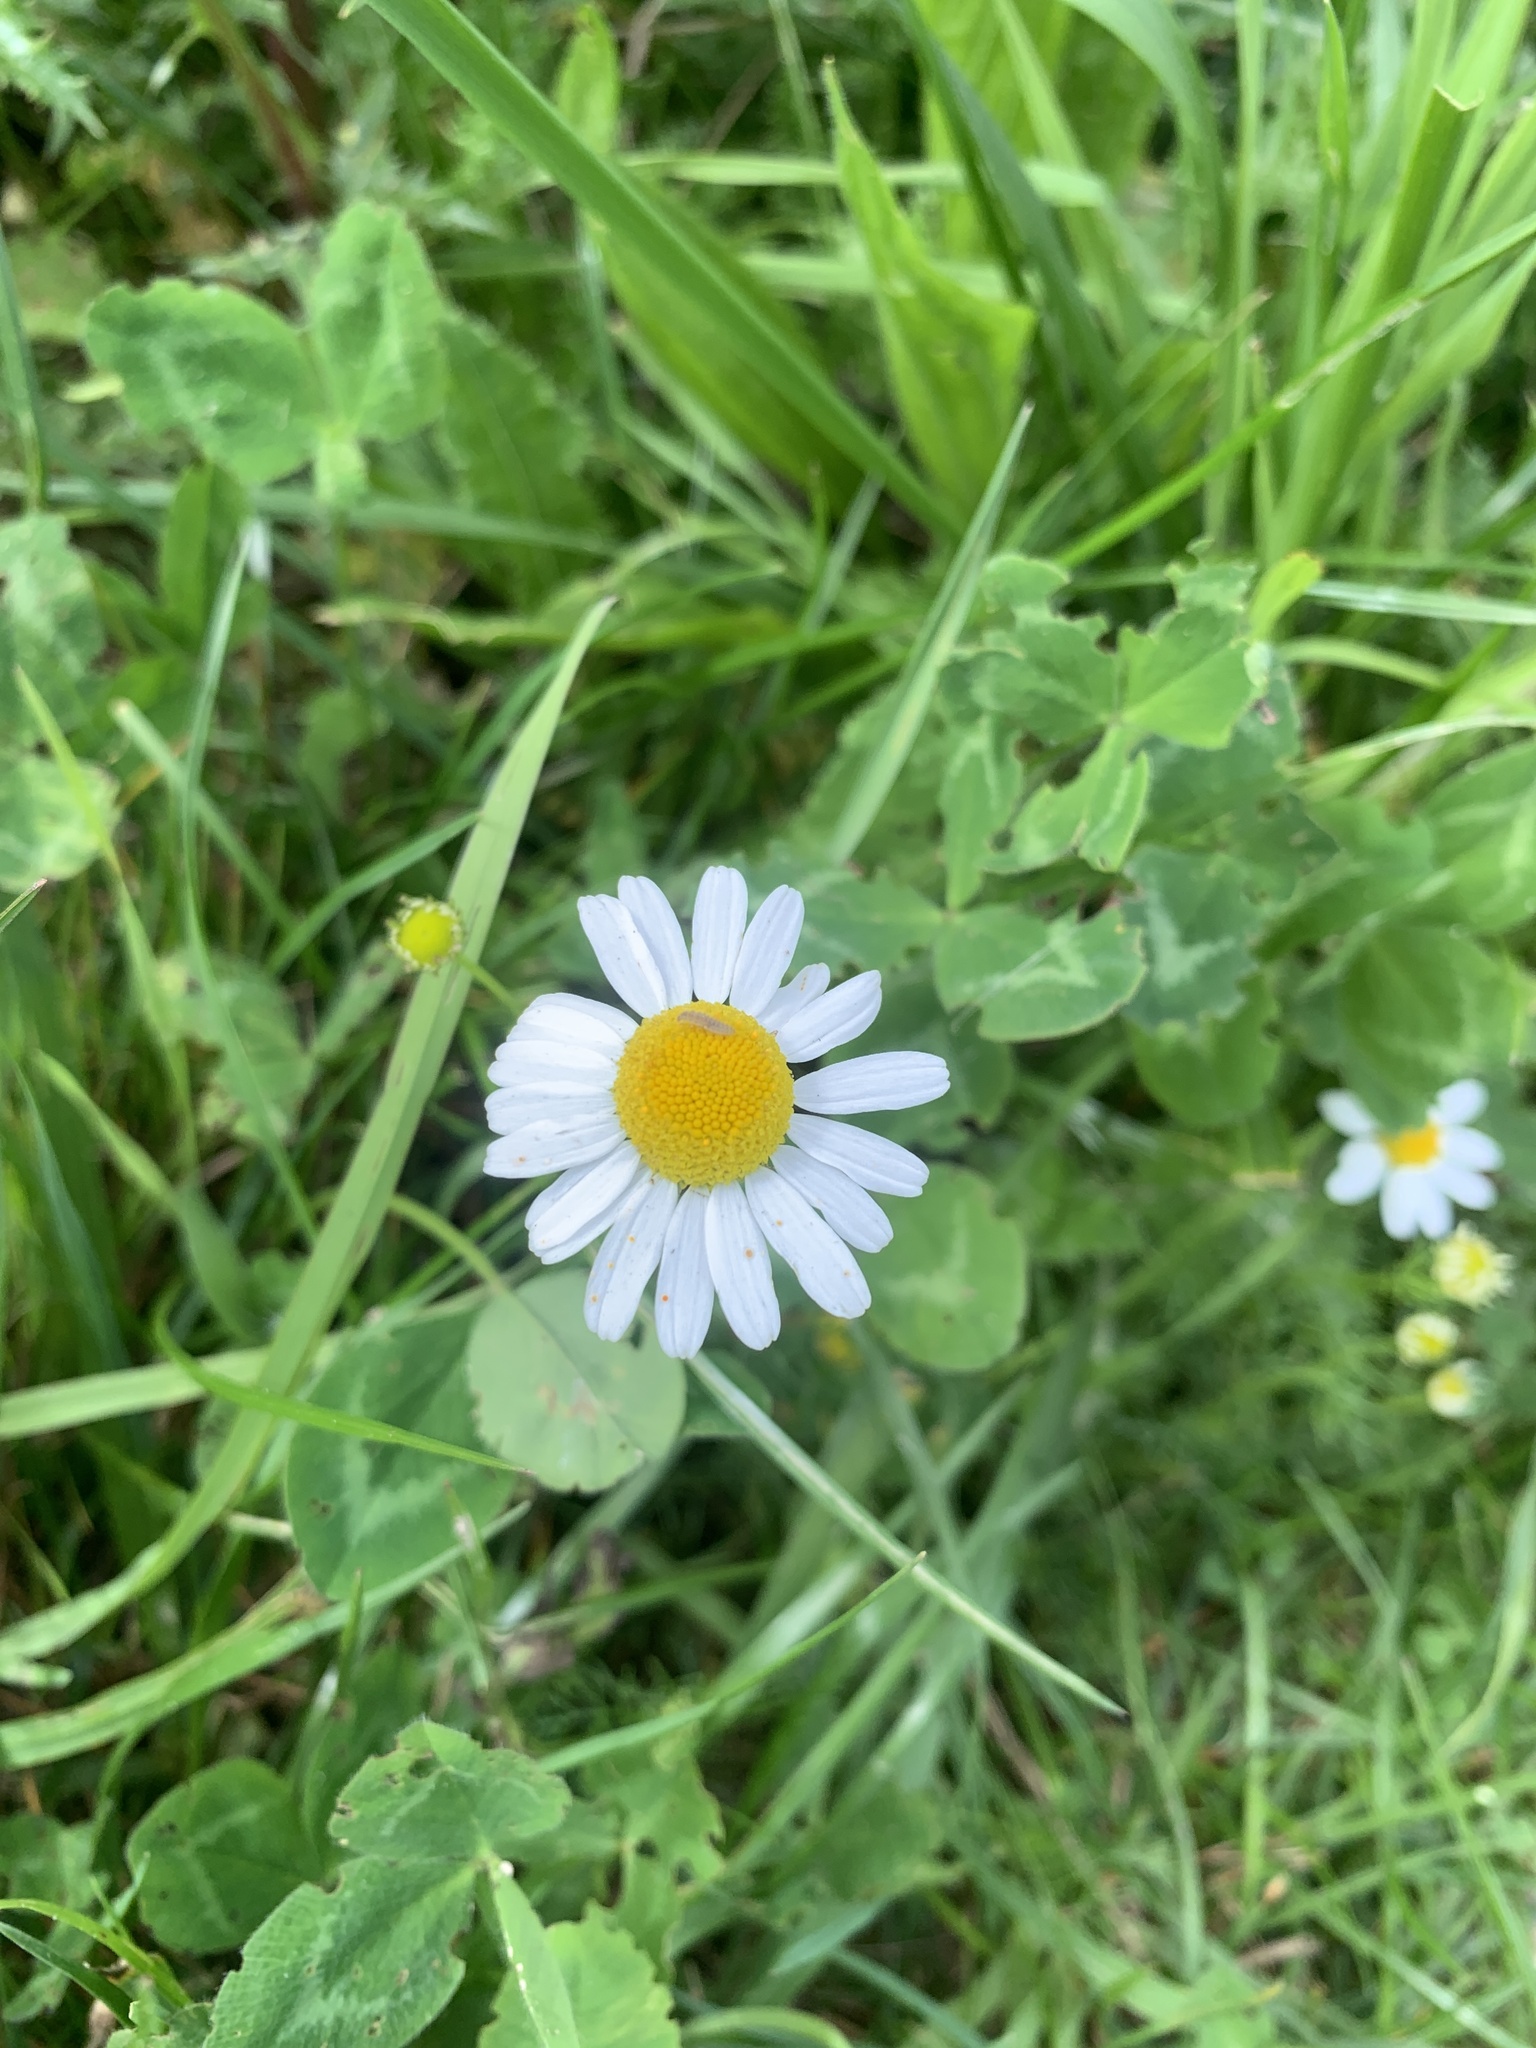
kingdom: Plantae
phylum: Tracheophyta
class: Magnoliopsida
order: Asterales
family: Asteraceae
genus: Leucanthemum
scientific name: Leucanthemum vulgare
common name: Oxeye daisy
